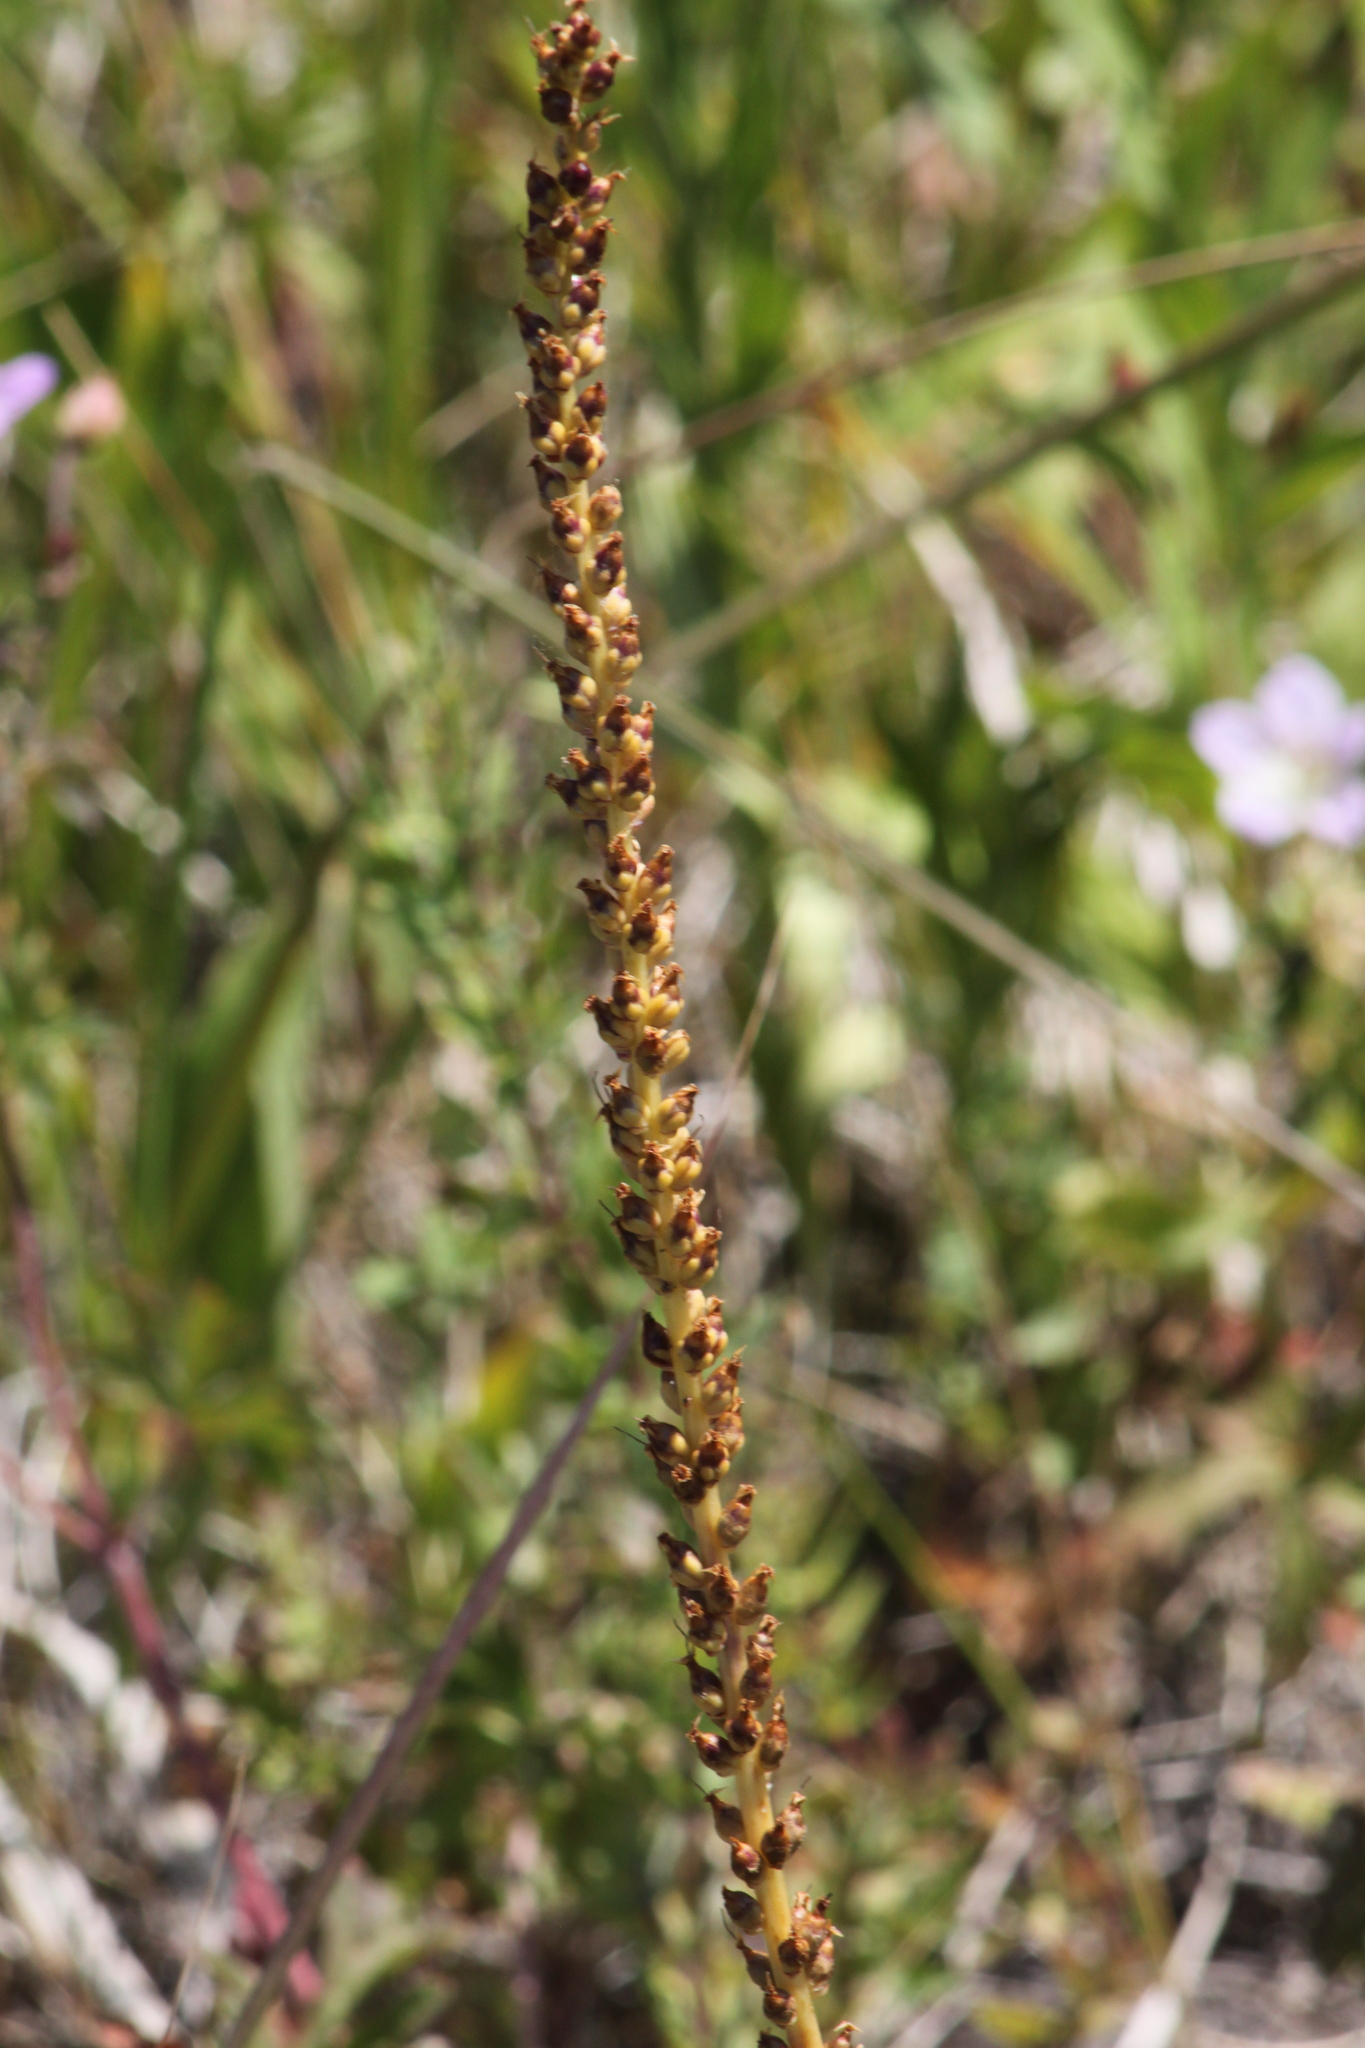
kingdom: Plantae
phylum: Tracheophyta
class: Magnoliopsida
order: Lamiales
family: Plantaginaceae
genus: Plantago
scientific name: Plantago maxima
